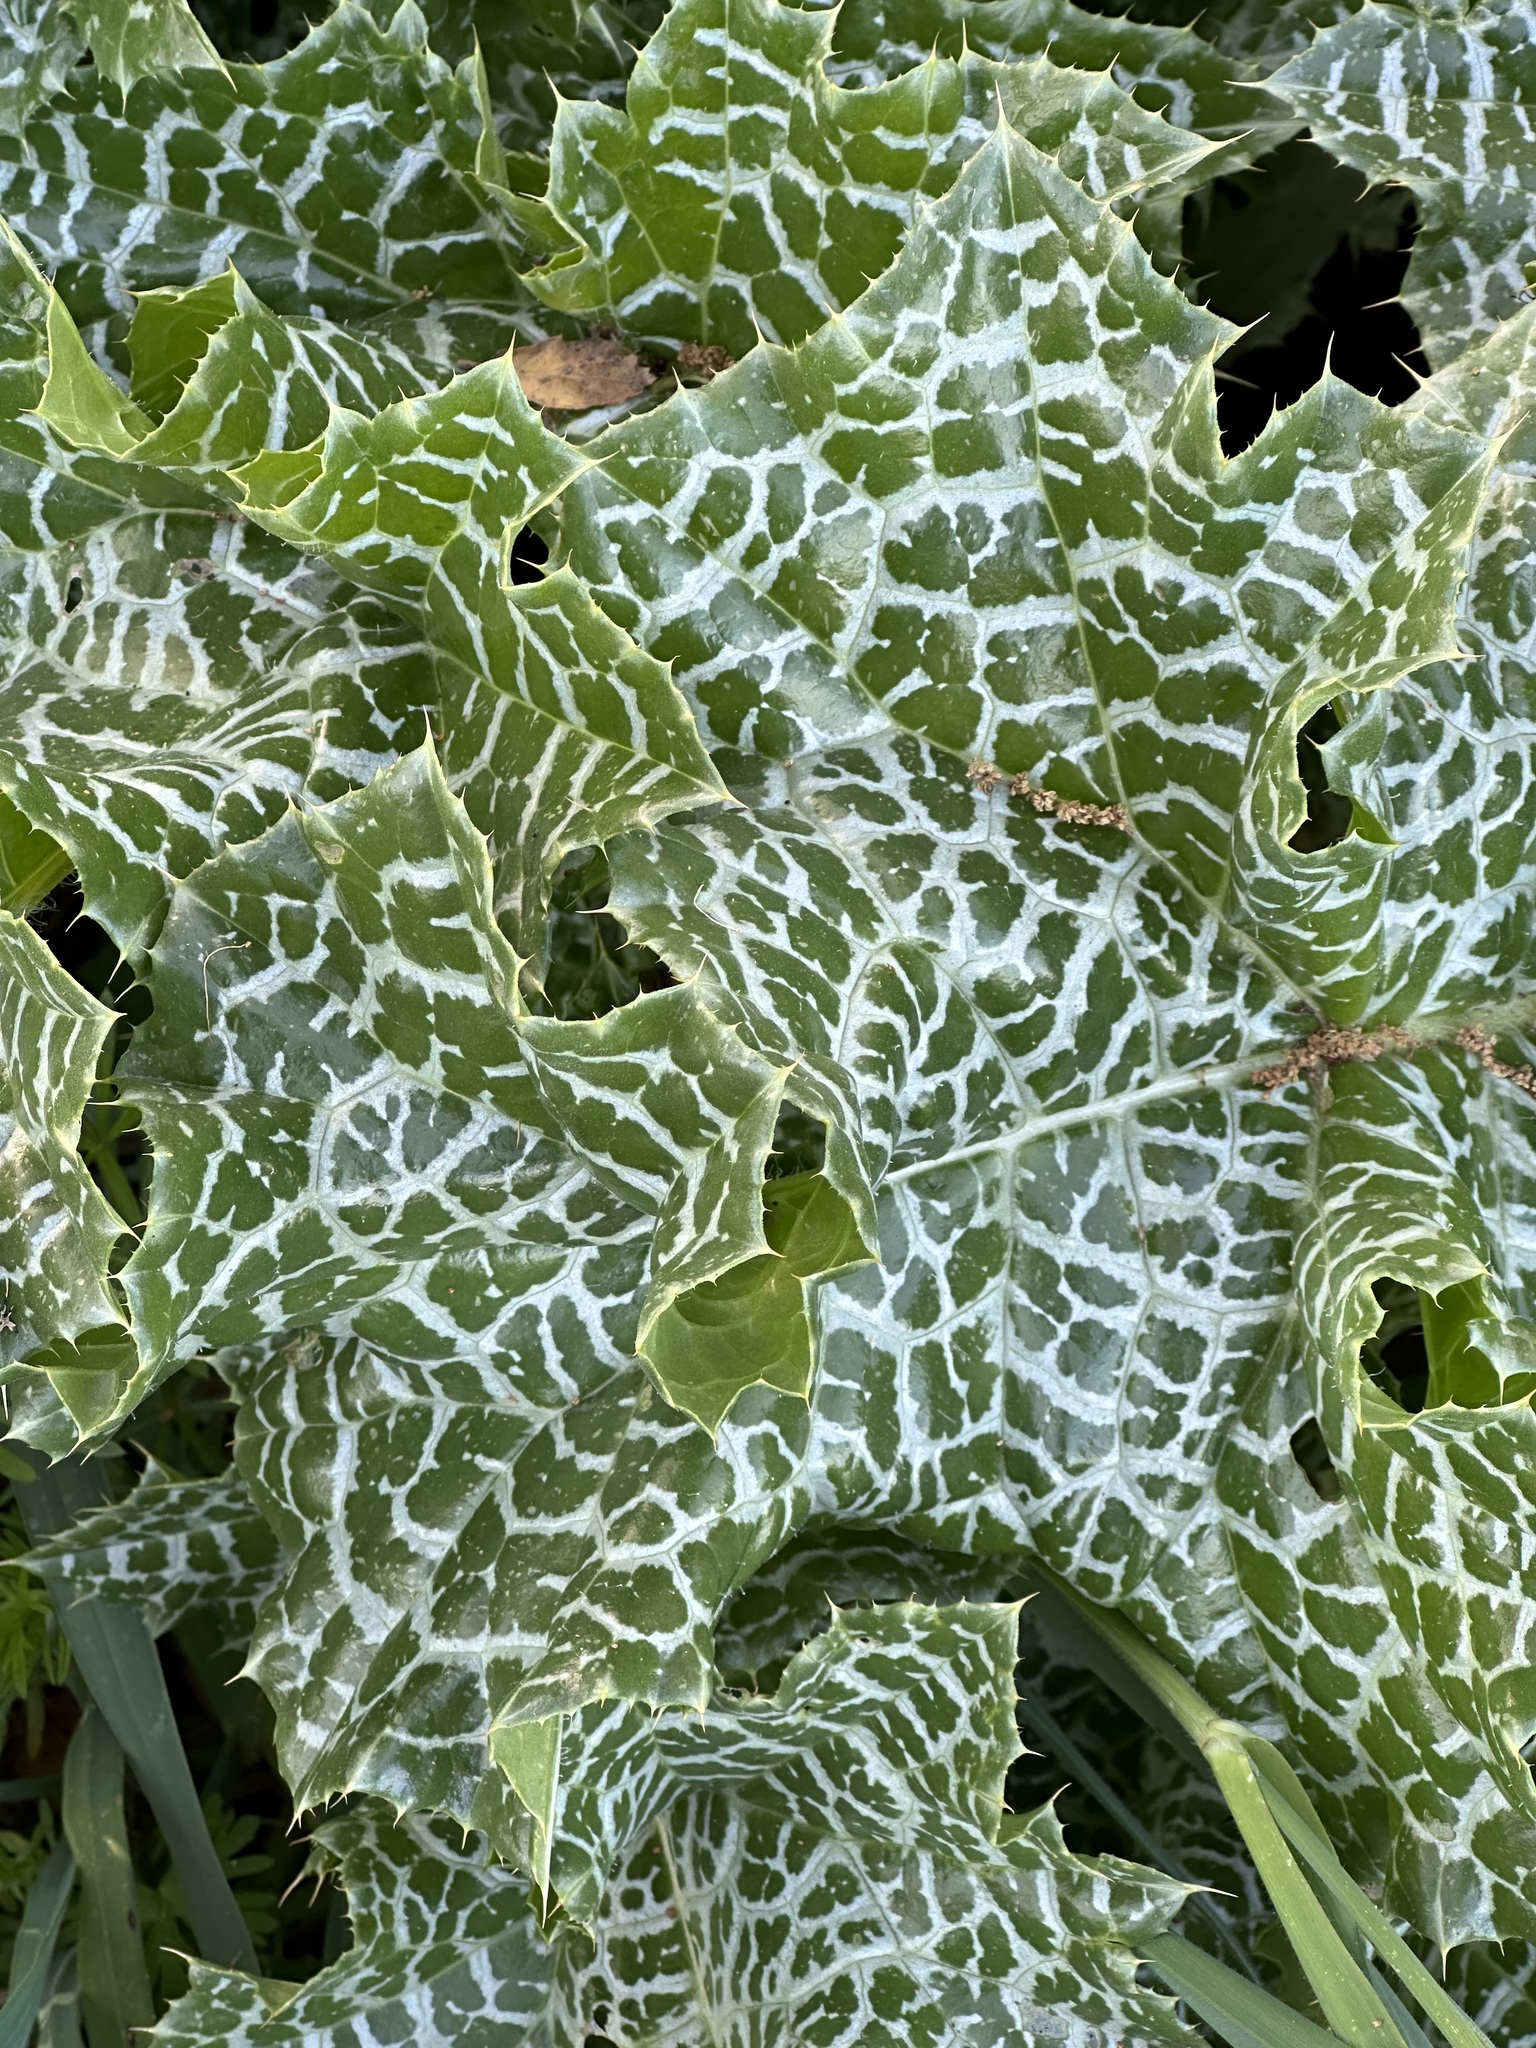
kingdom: Plantae
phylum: Tracheophyta
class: Magnoliopsida
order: Asterales
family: Asteraceae
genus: Silybum
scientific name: Silybum marianum
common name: Milk thistle
